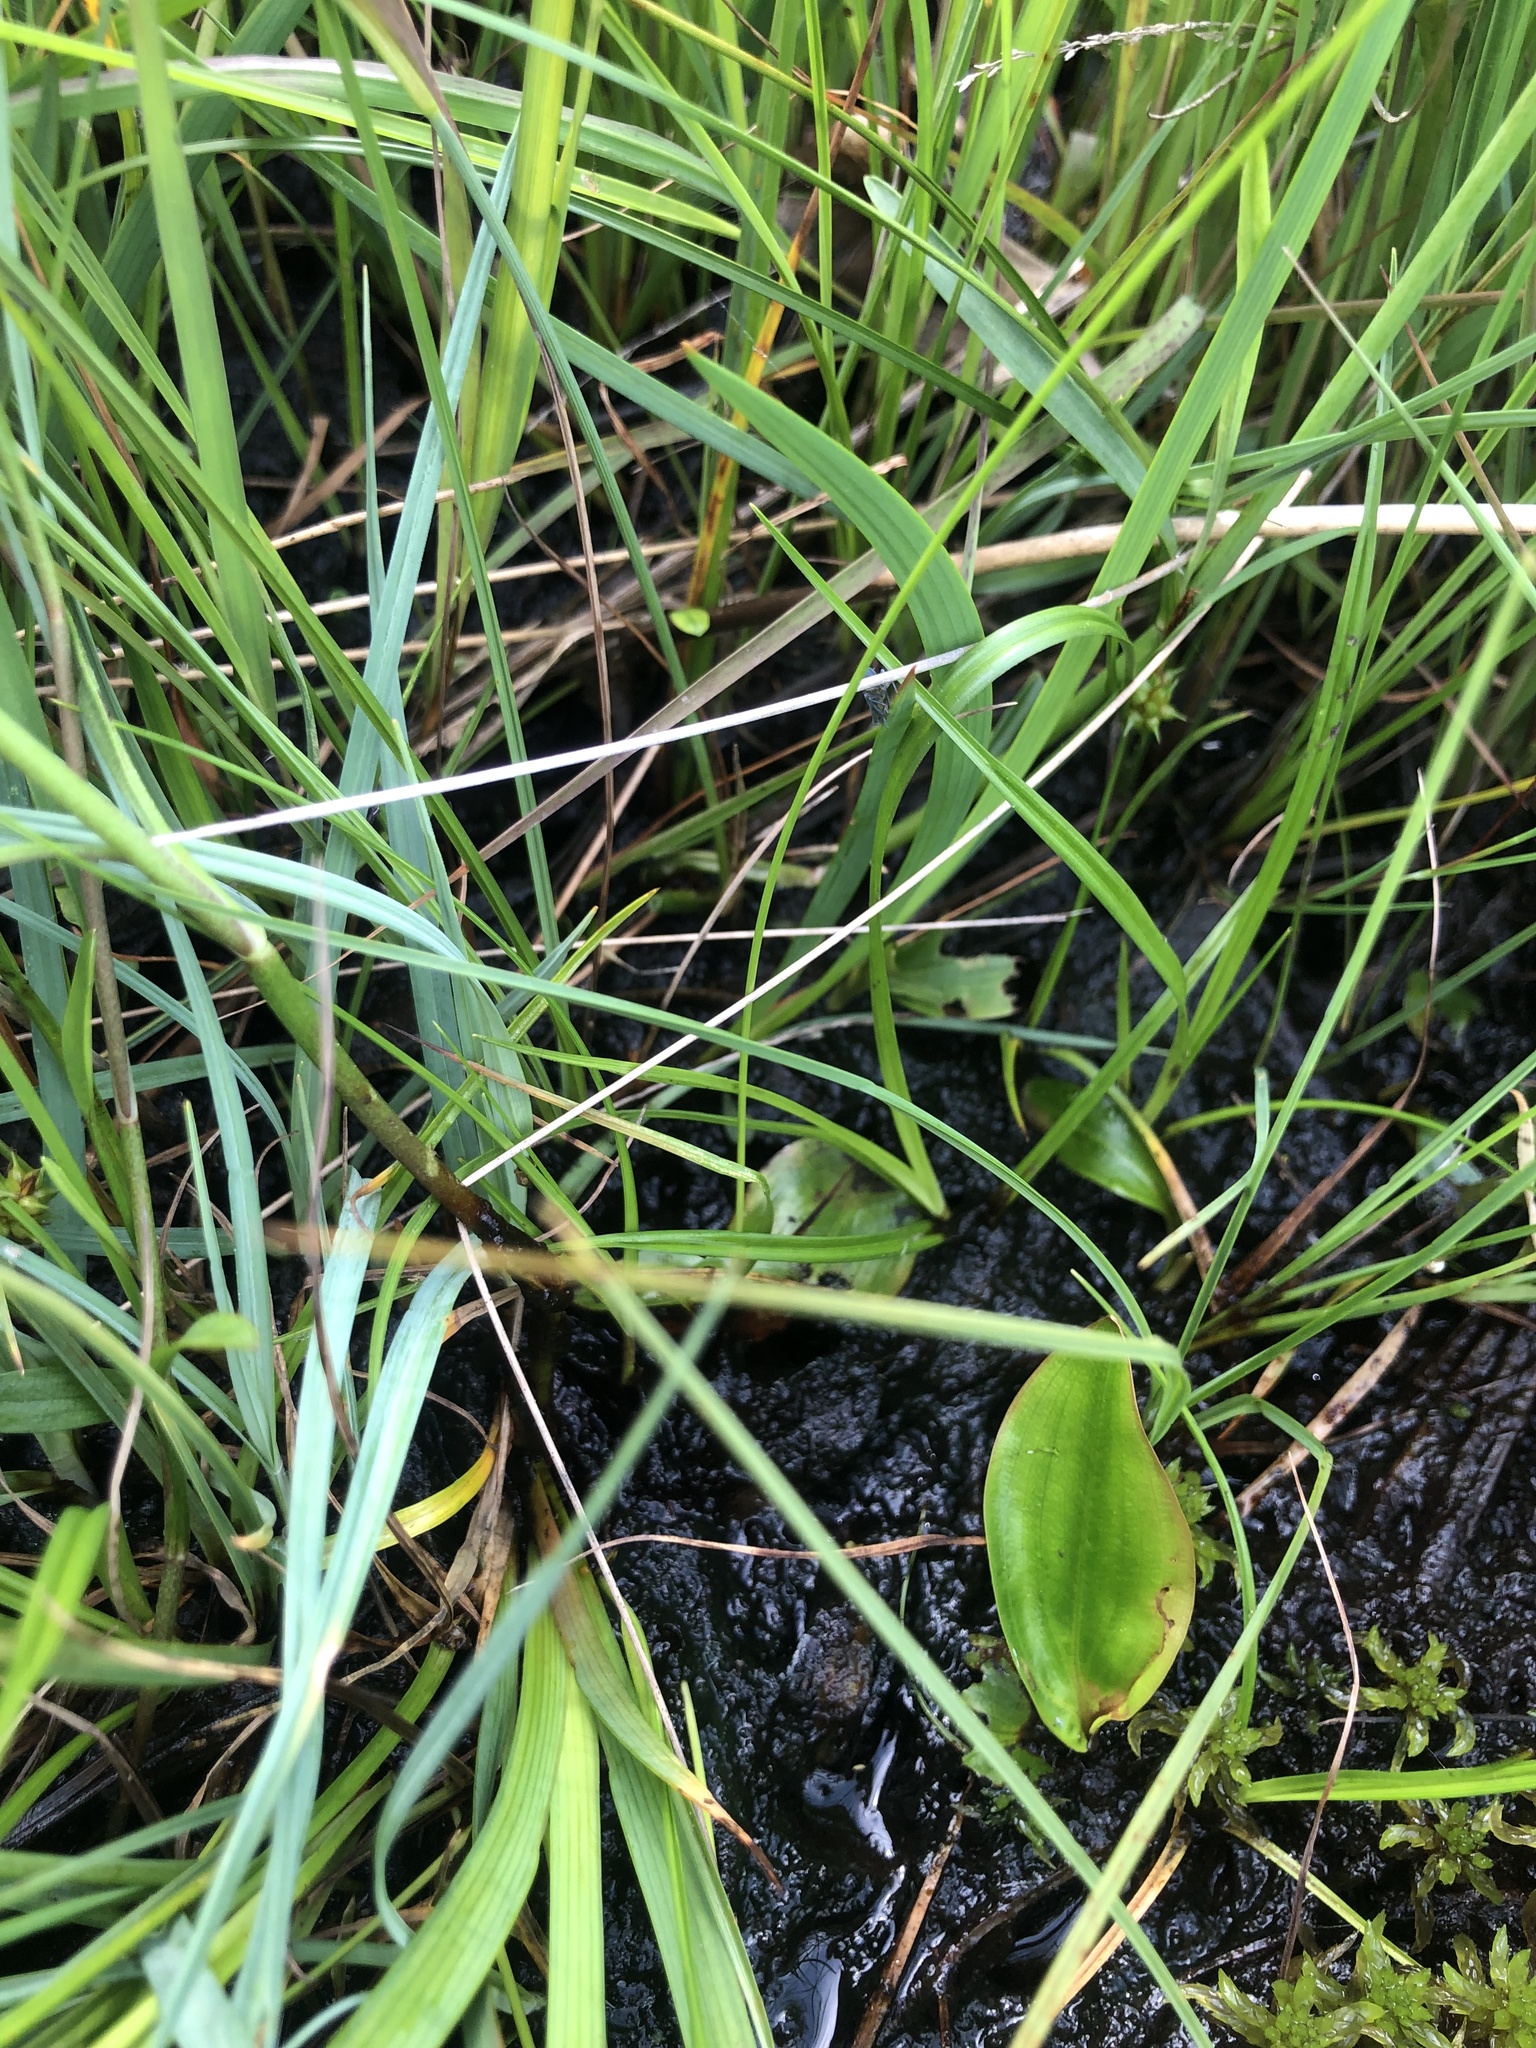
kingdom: Plantae
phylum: Tracheophyta
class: Liliopsida
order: Poales
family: Cyperaceae
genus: Carex
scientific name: Carex echinata
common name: Star sedge
